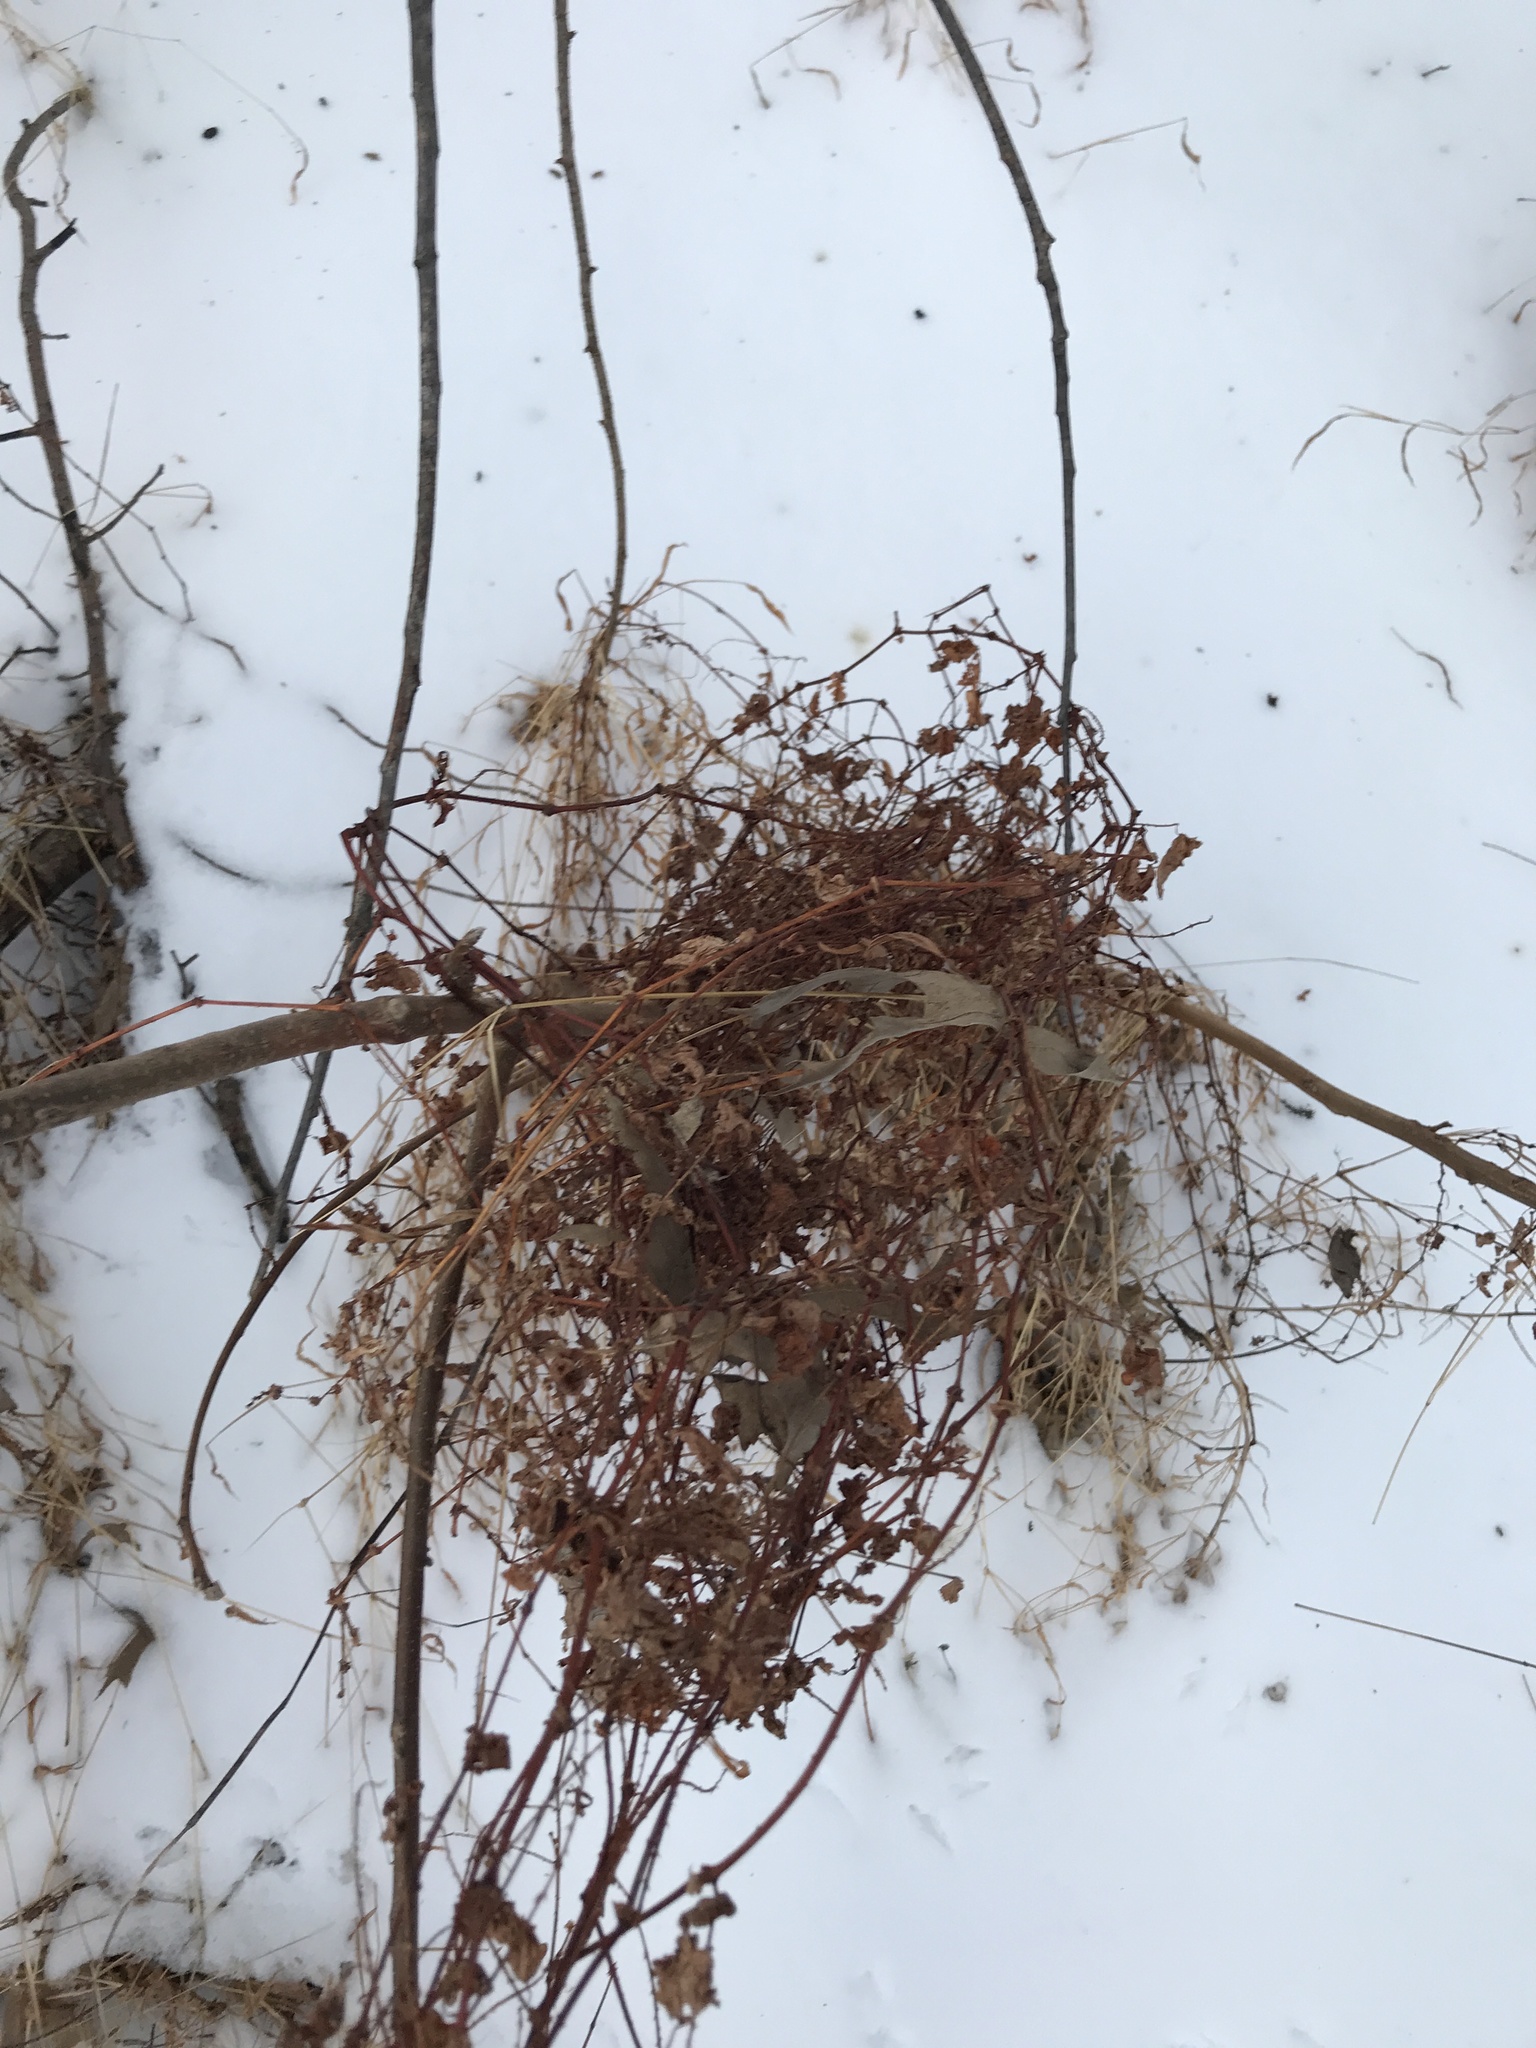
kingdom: Plantae
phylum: Tracheophyta
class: Magnoliopsida
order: Caryophyllales
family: Polygonaceae
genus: Persicaria
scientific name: Persicaria perfoliata
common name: Asiatic tearthumb
